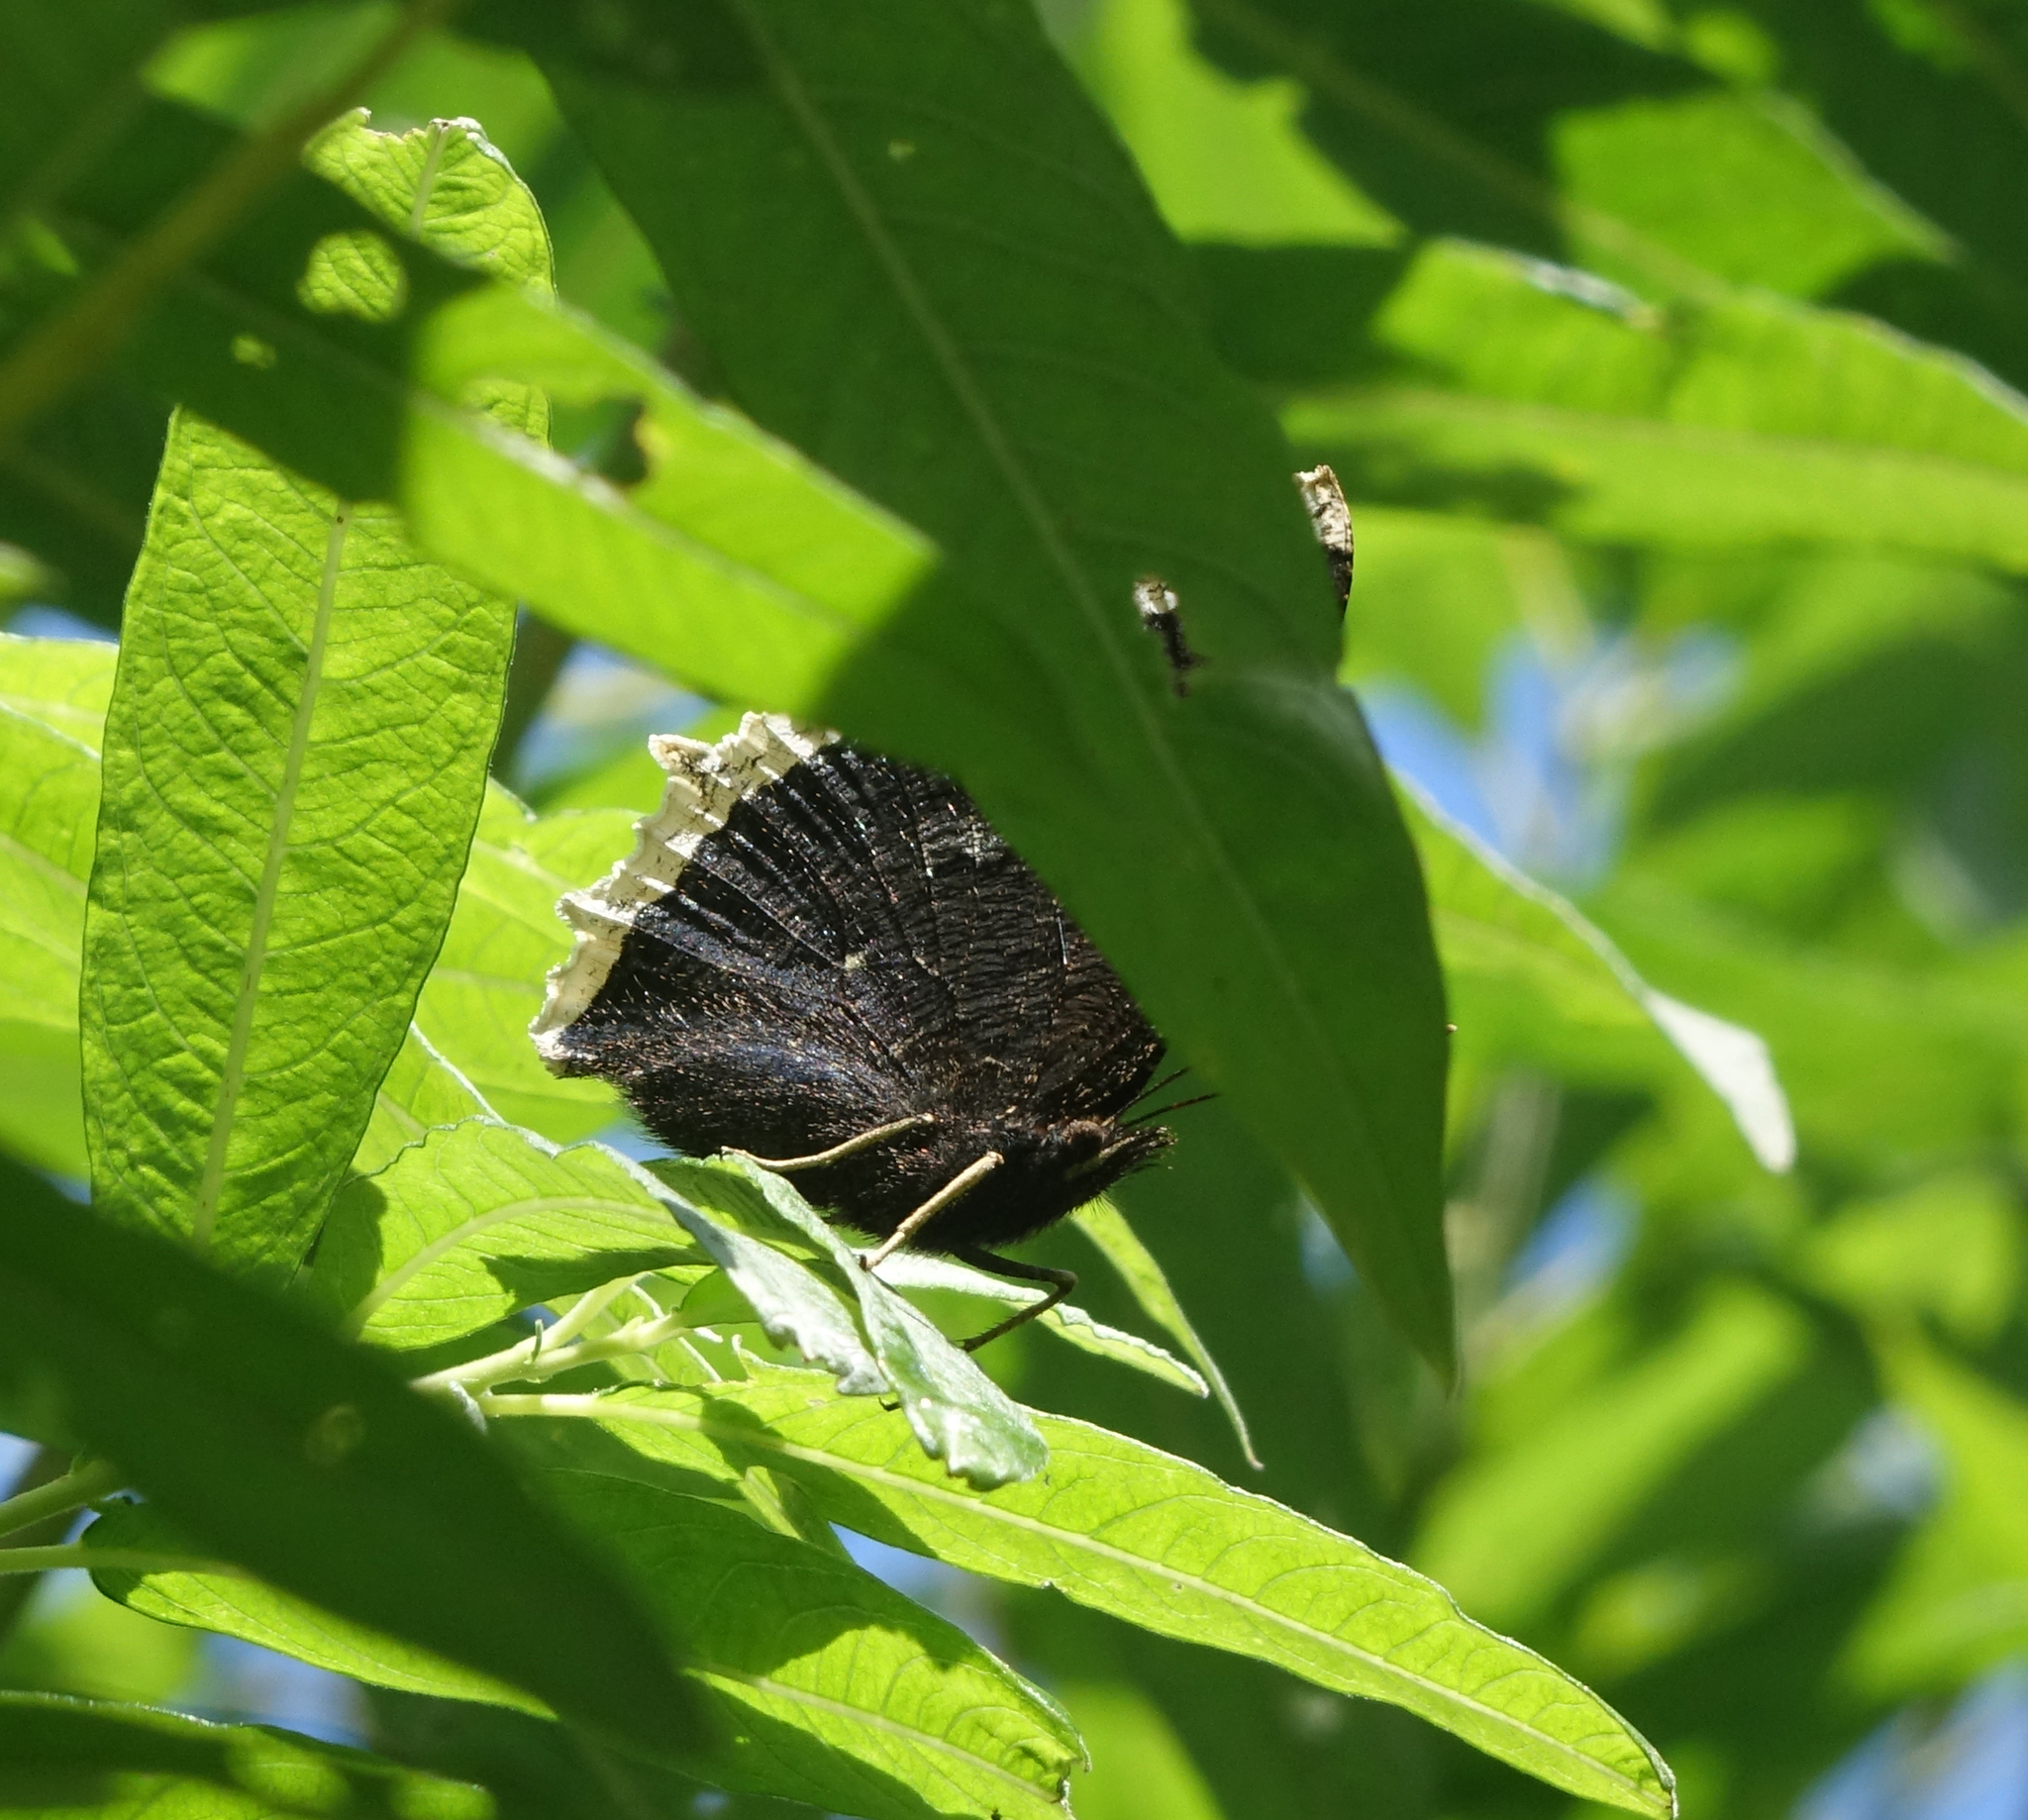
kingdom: Animalia
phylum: Arthropoda
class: Insecta
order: Lepidoptera
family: Nymphalidae
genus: Nymphalis
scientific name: Nymphalis antiopa
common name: Camberwell beauty
